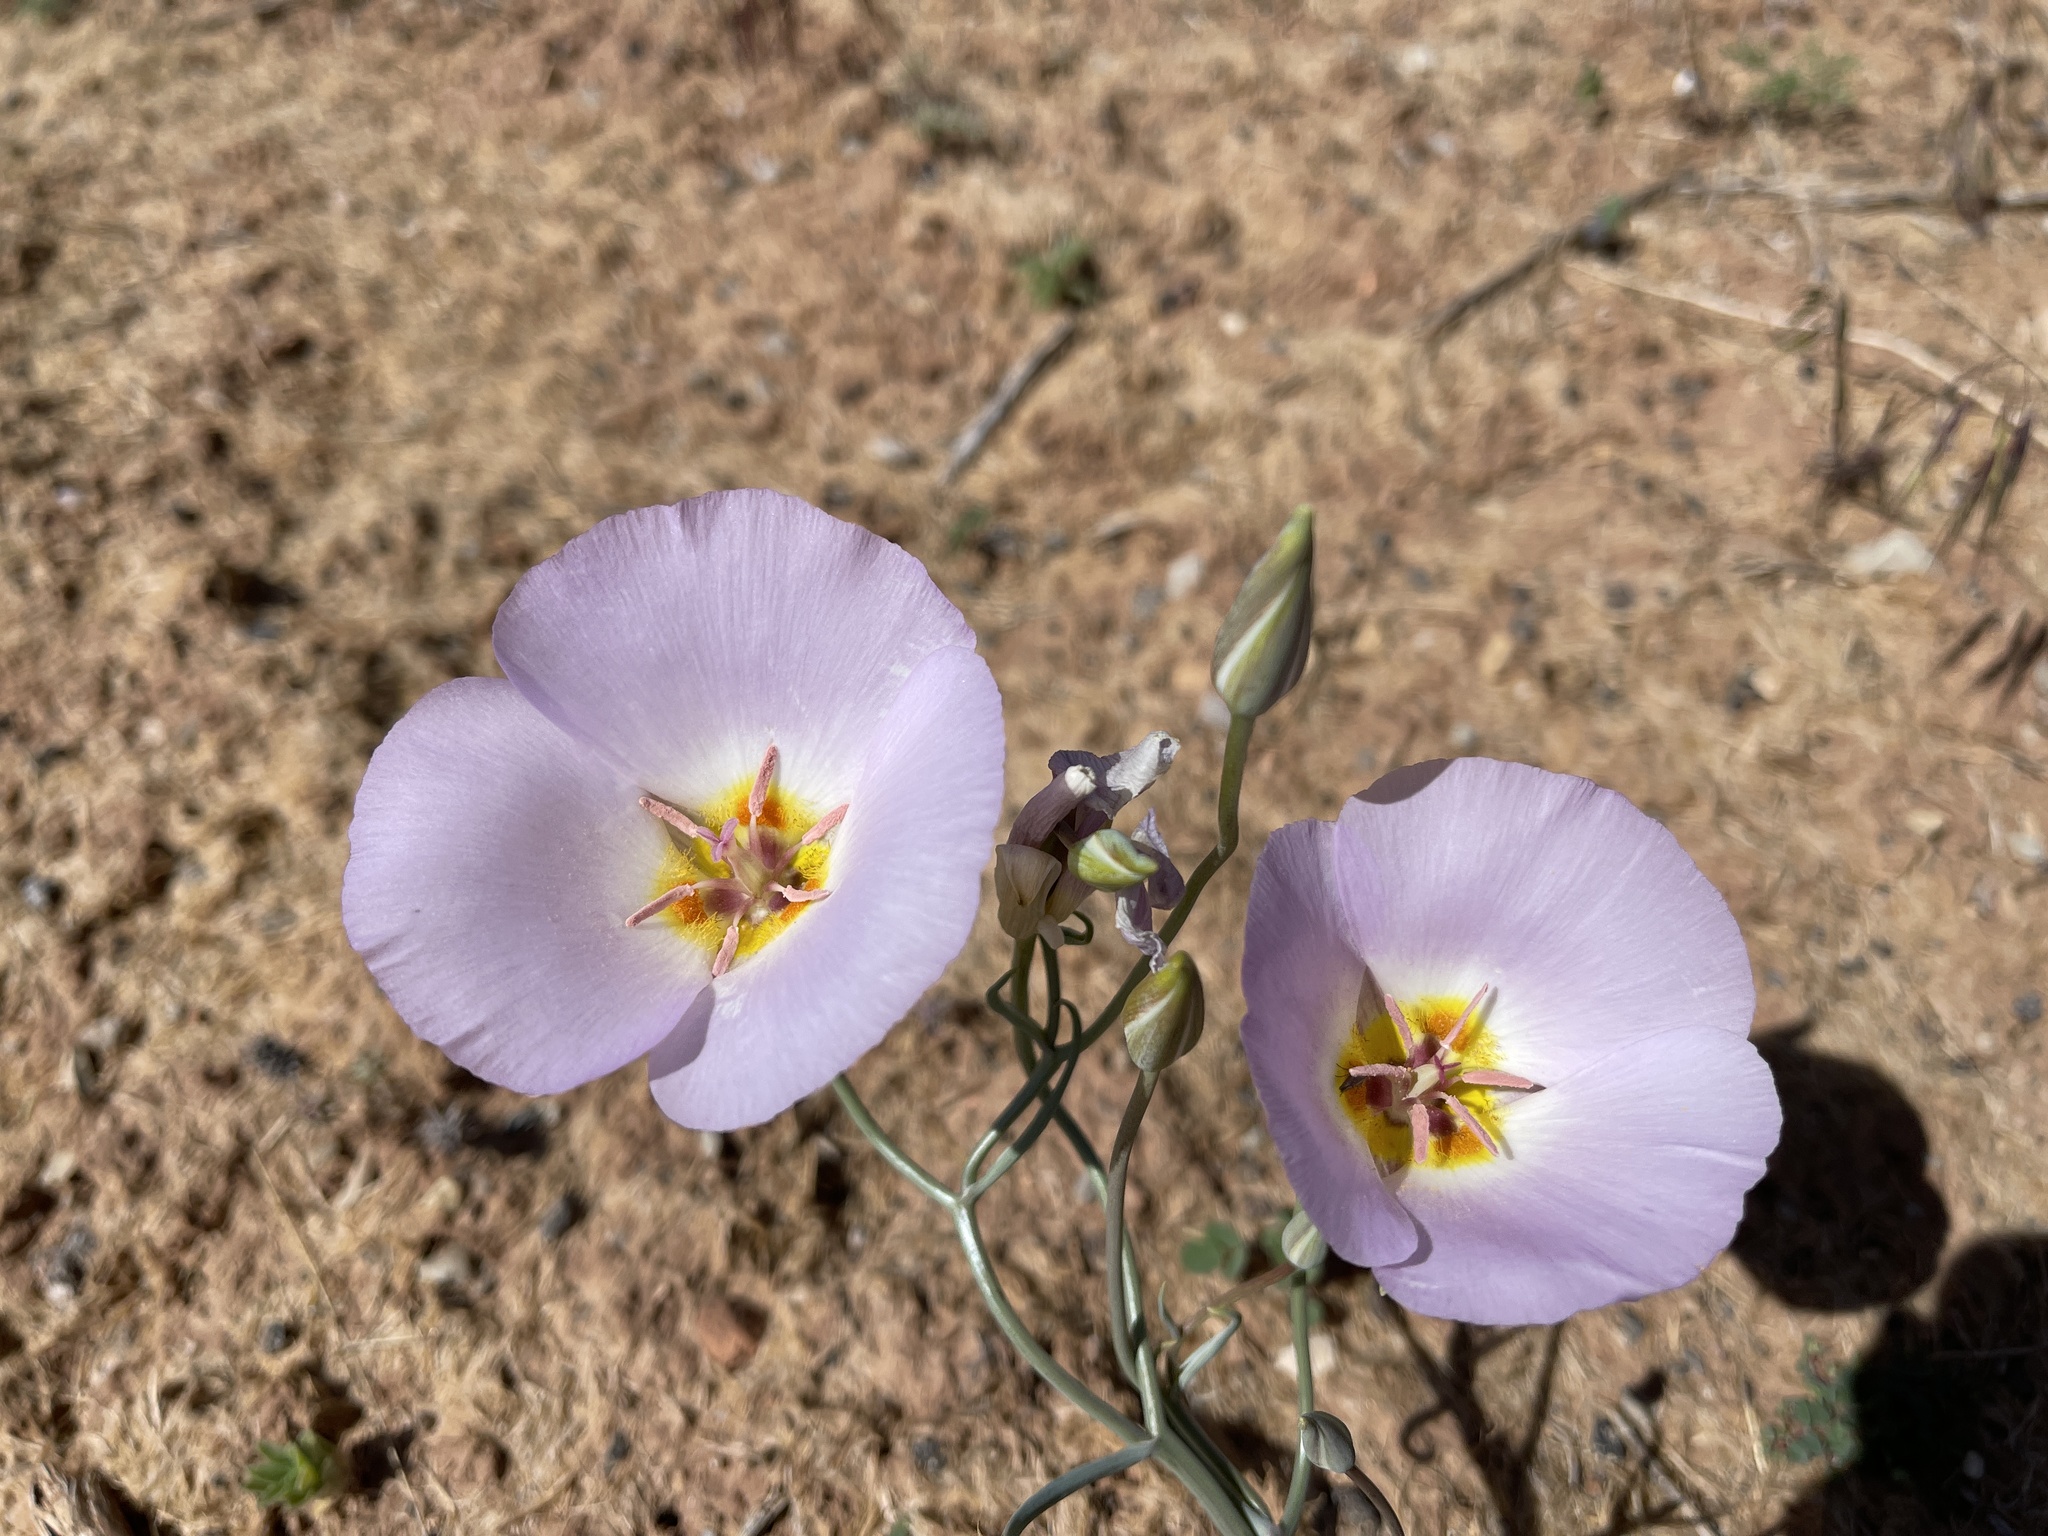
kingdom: Plantae
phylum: Tracheophyta
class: Liliopsida
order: Liliales
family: Liliaceae
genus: Calochortus
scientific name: Calochortus flexuosus
